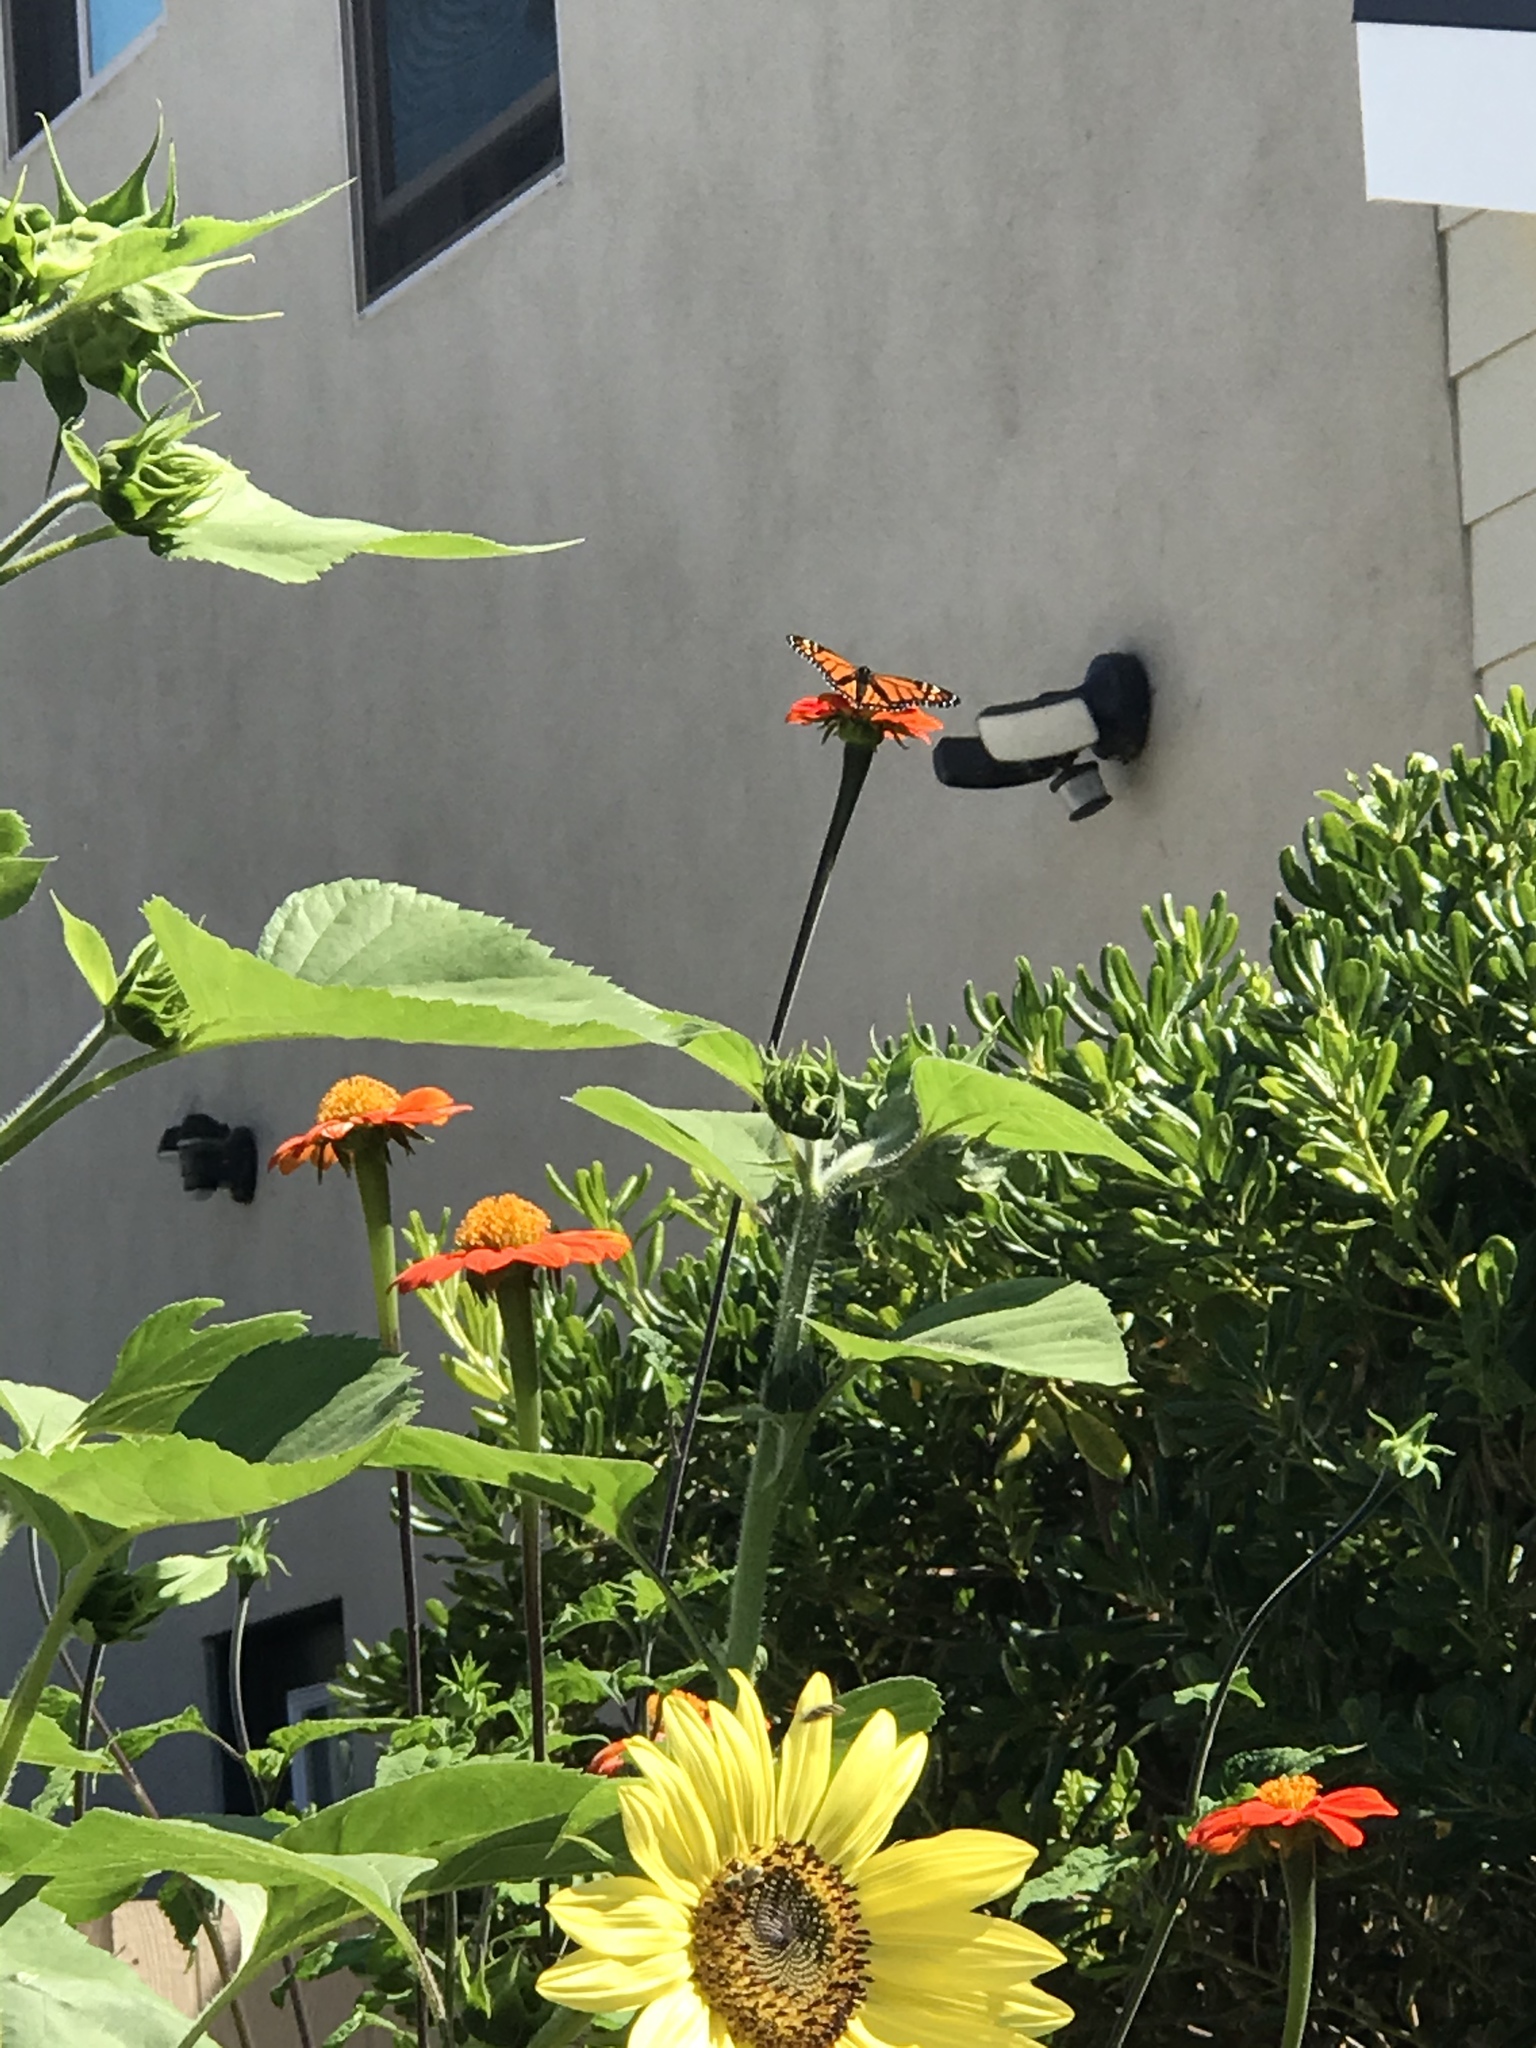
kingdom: Animalia
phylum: Arthropoda
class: Insecta
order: Lepidoptera
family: Nymphalidae
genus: Danaus
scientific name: Danaus plexippus
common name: Monarch
